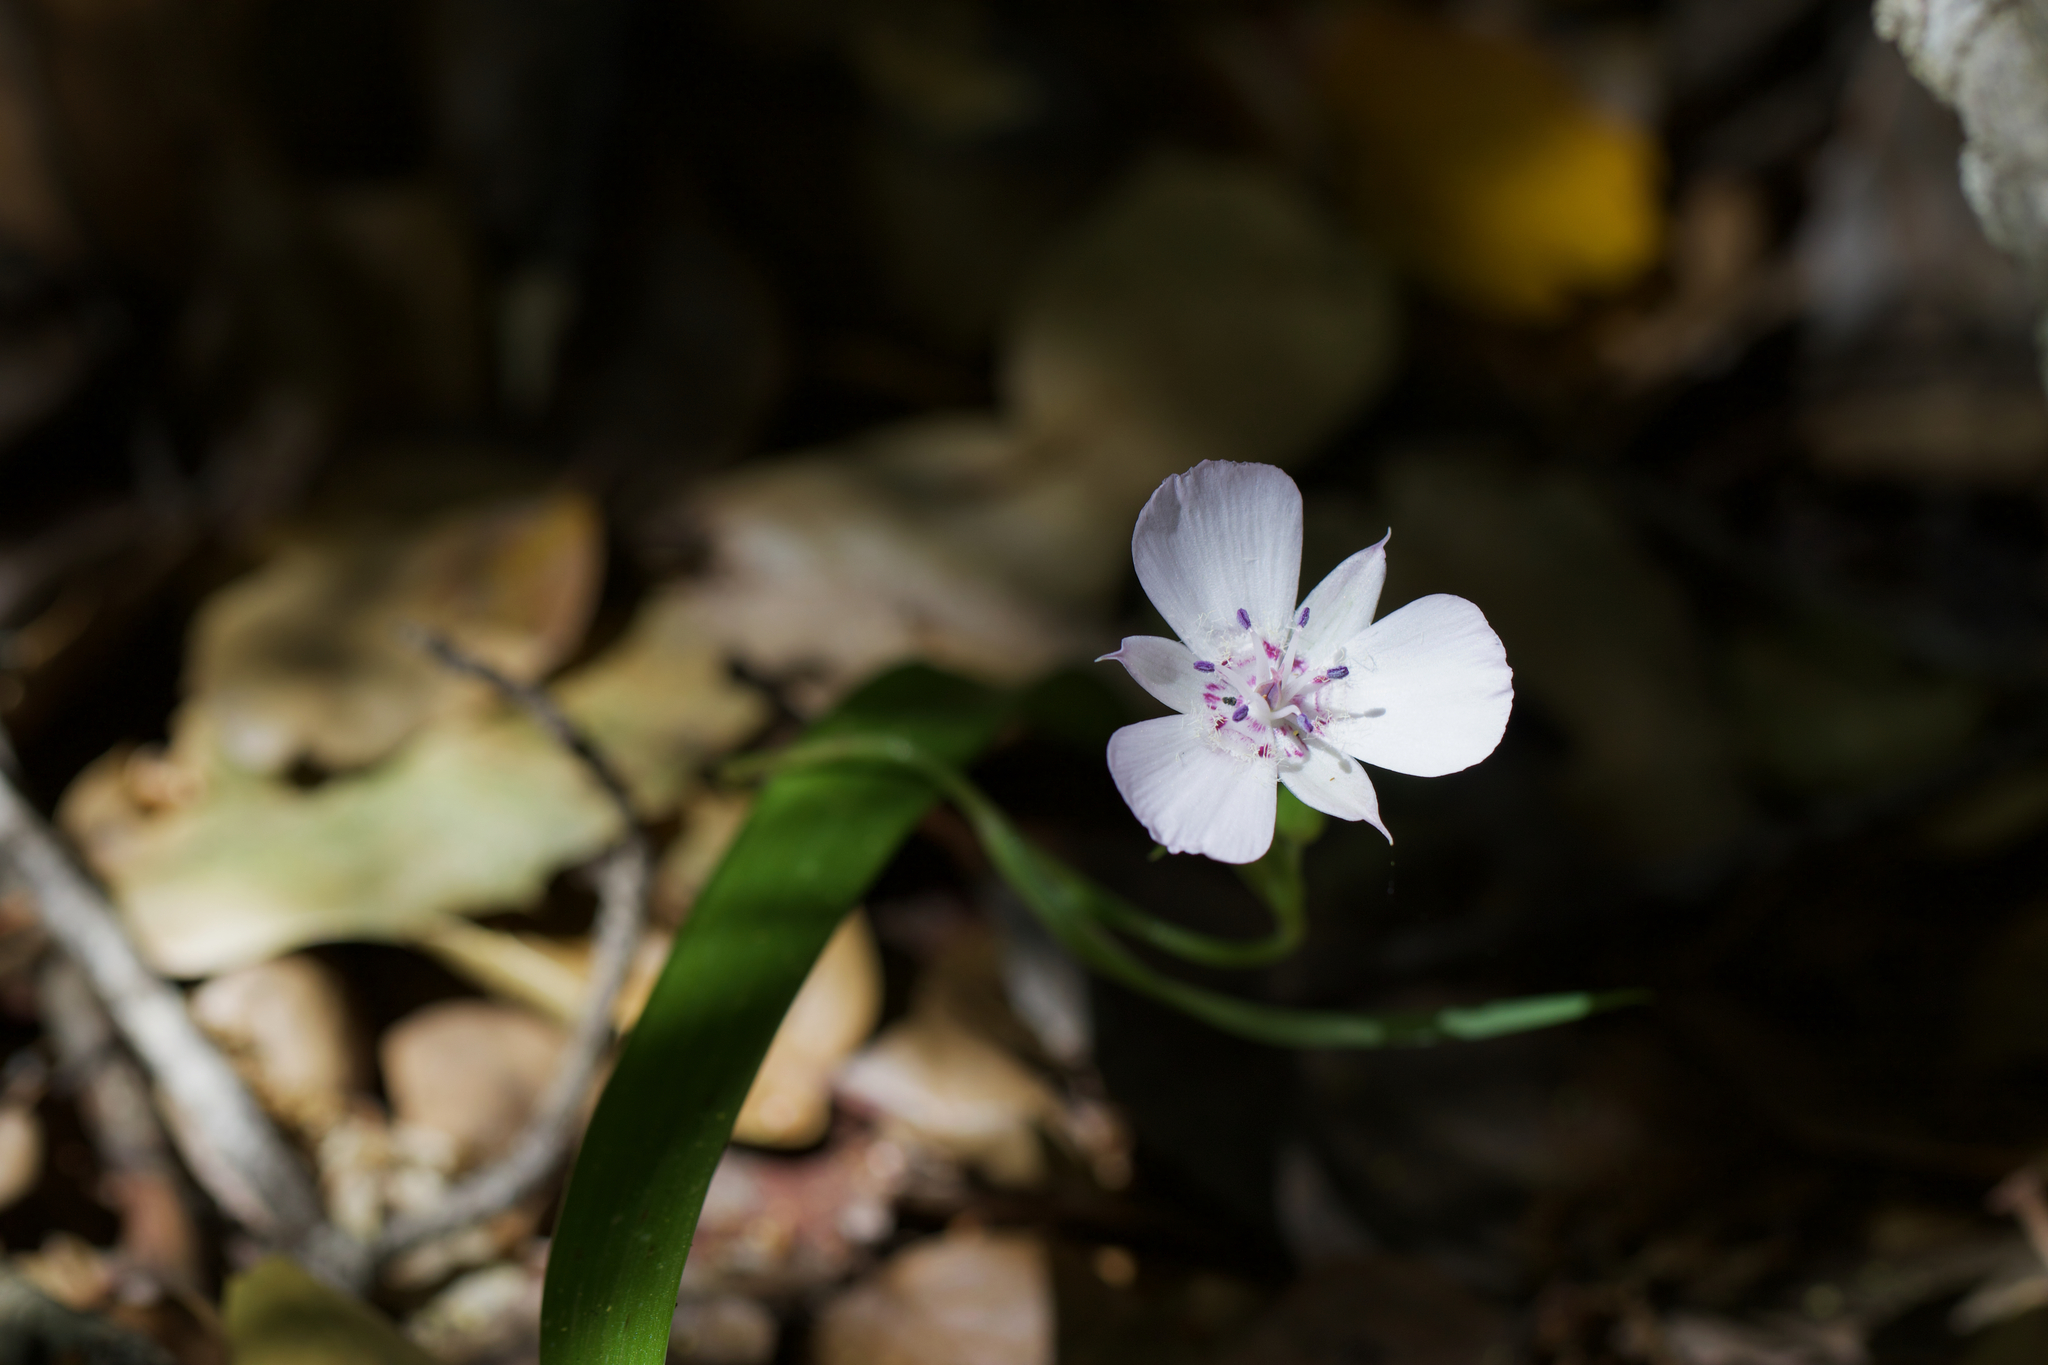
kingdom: Plantae
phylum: Tracheophyta
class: Liliopsida
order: Liliales
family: Liliaceae
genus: Calochortus
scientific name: Calochortus umbellatus
